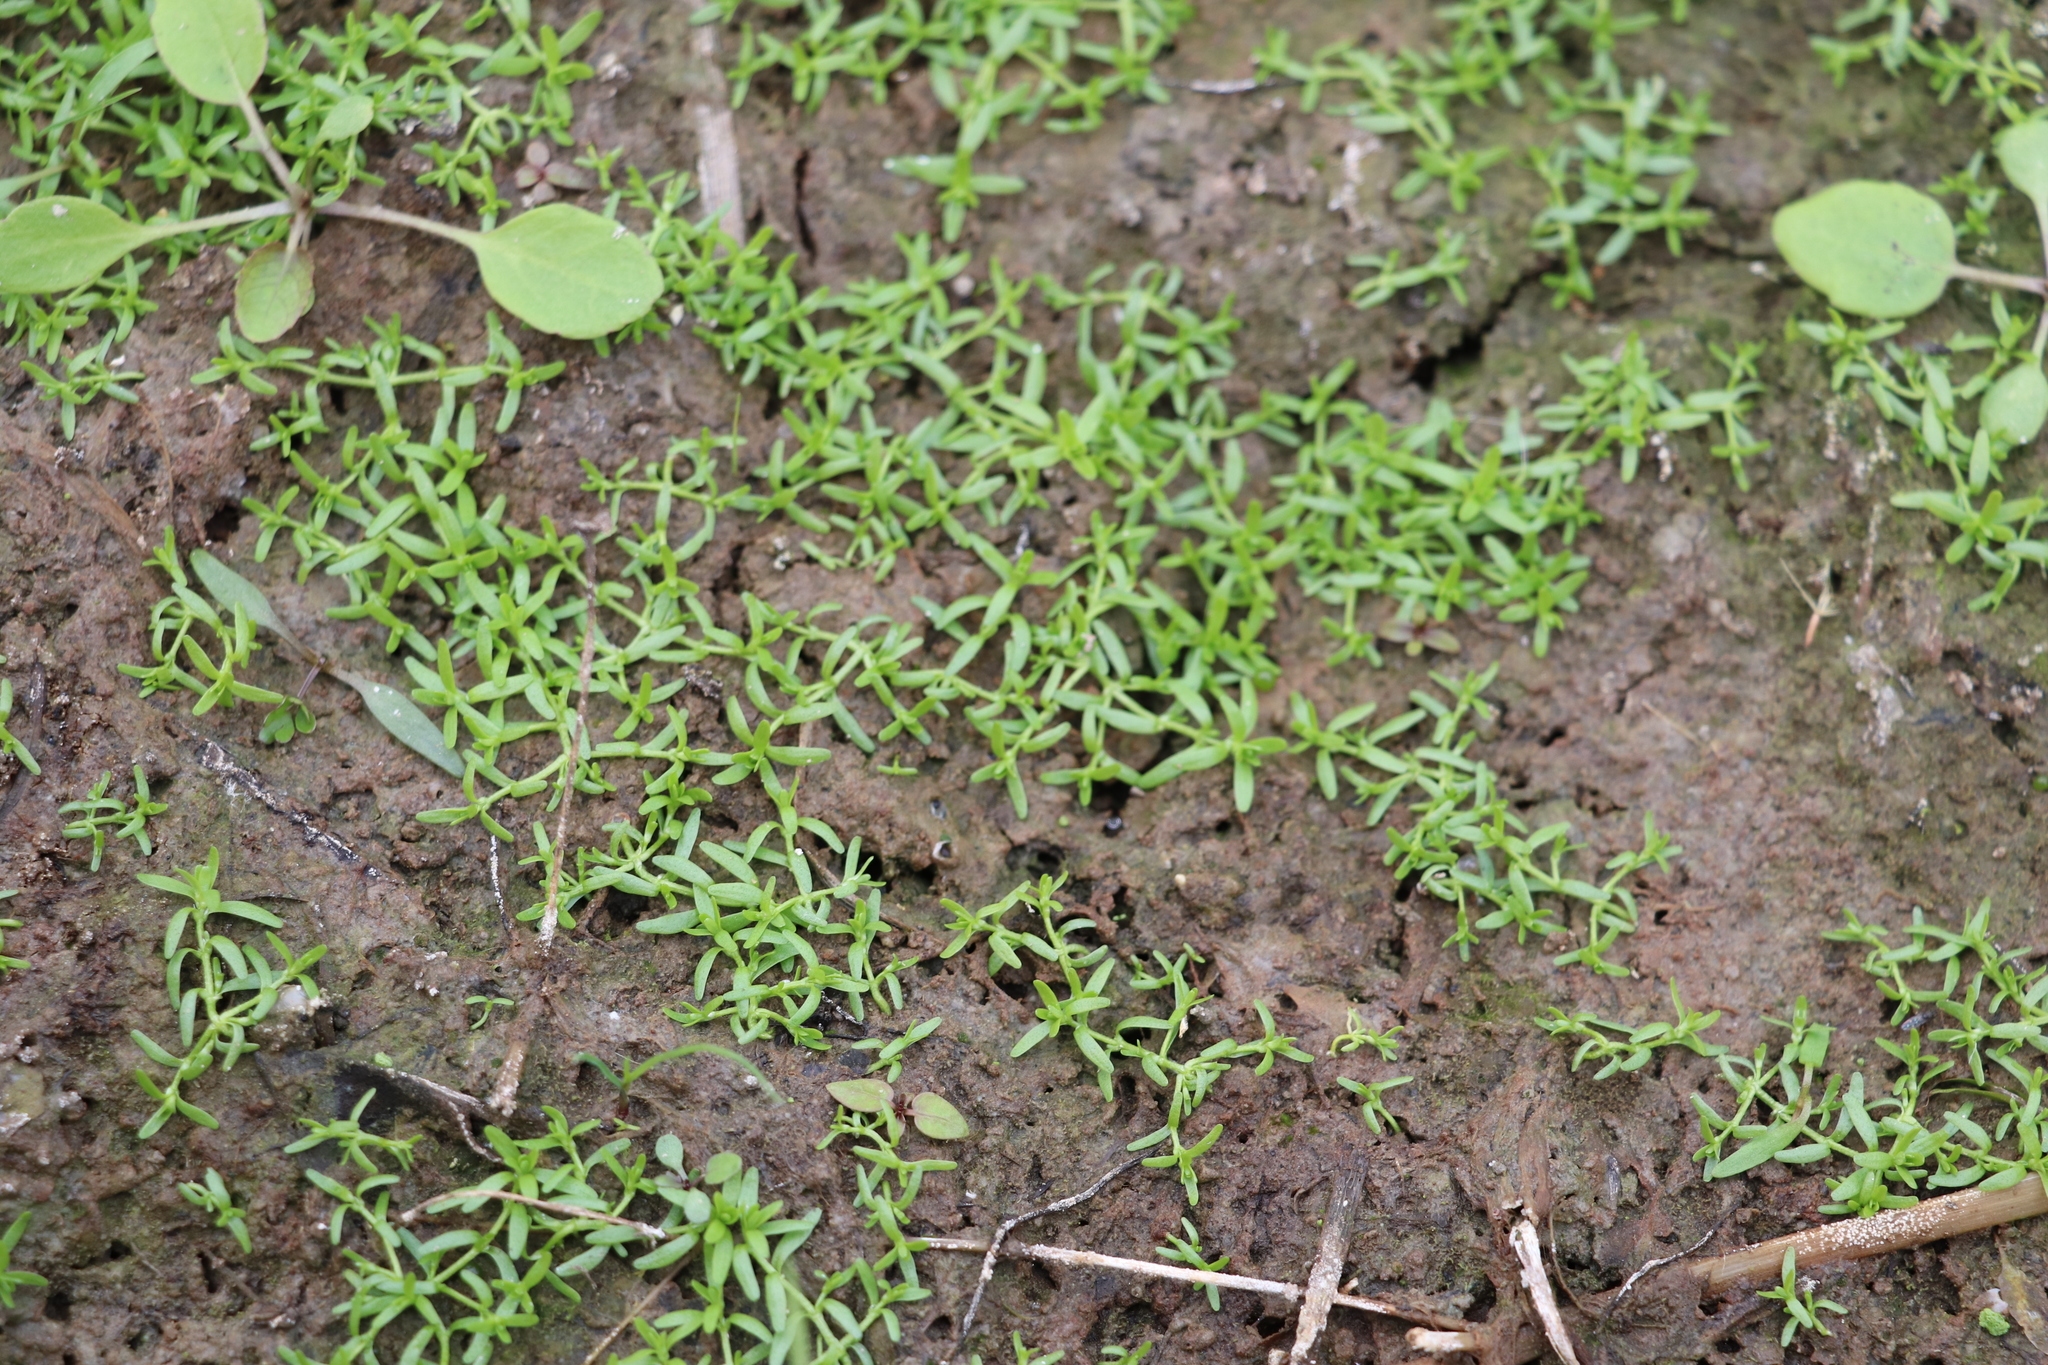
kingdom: Plantae
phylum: Tracheophyta
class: Magnoliopsida
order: Lamiales
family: Plantaginaceae
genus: Callitriche
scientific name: Callitriche palustris
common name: Spring water-starwort
